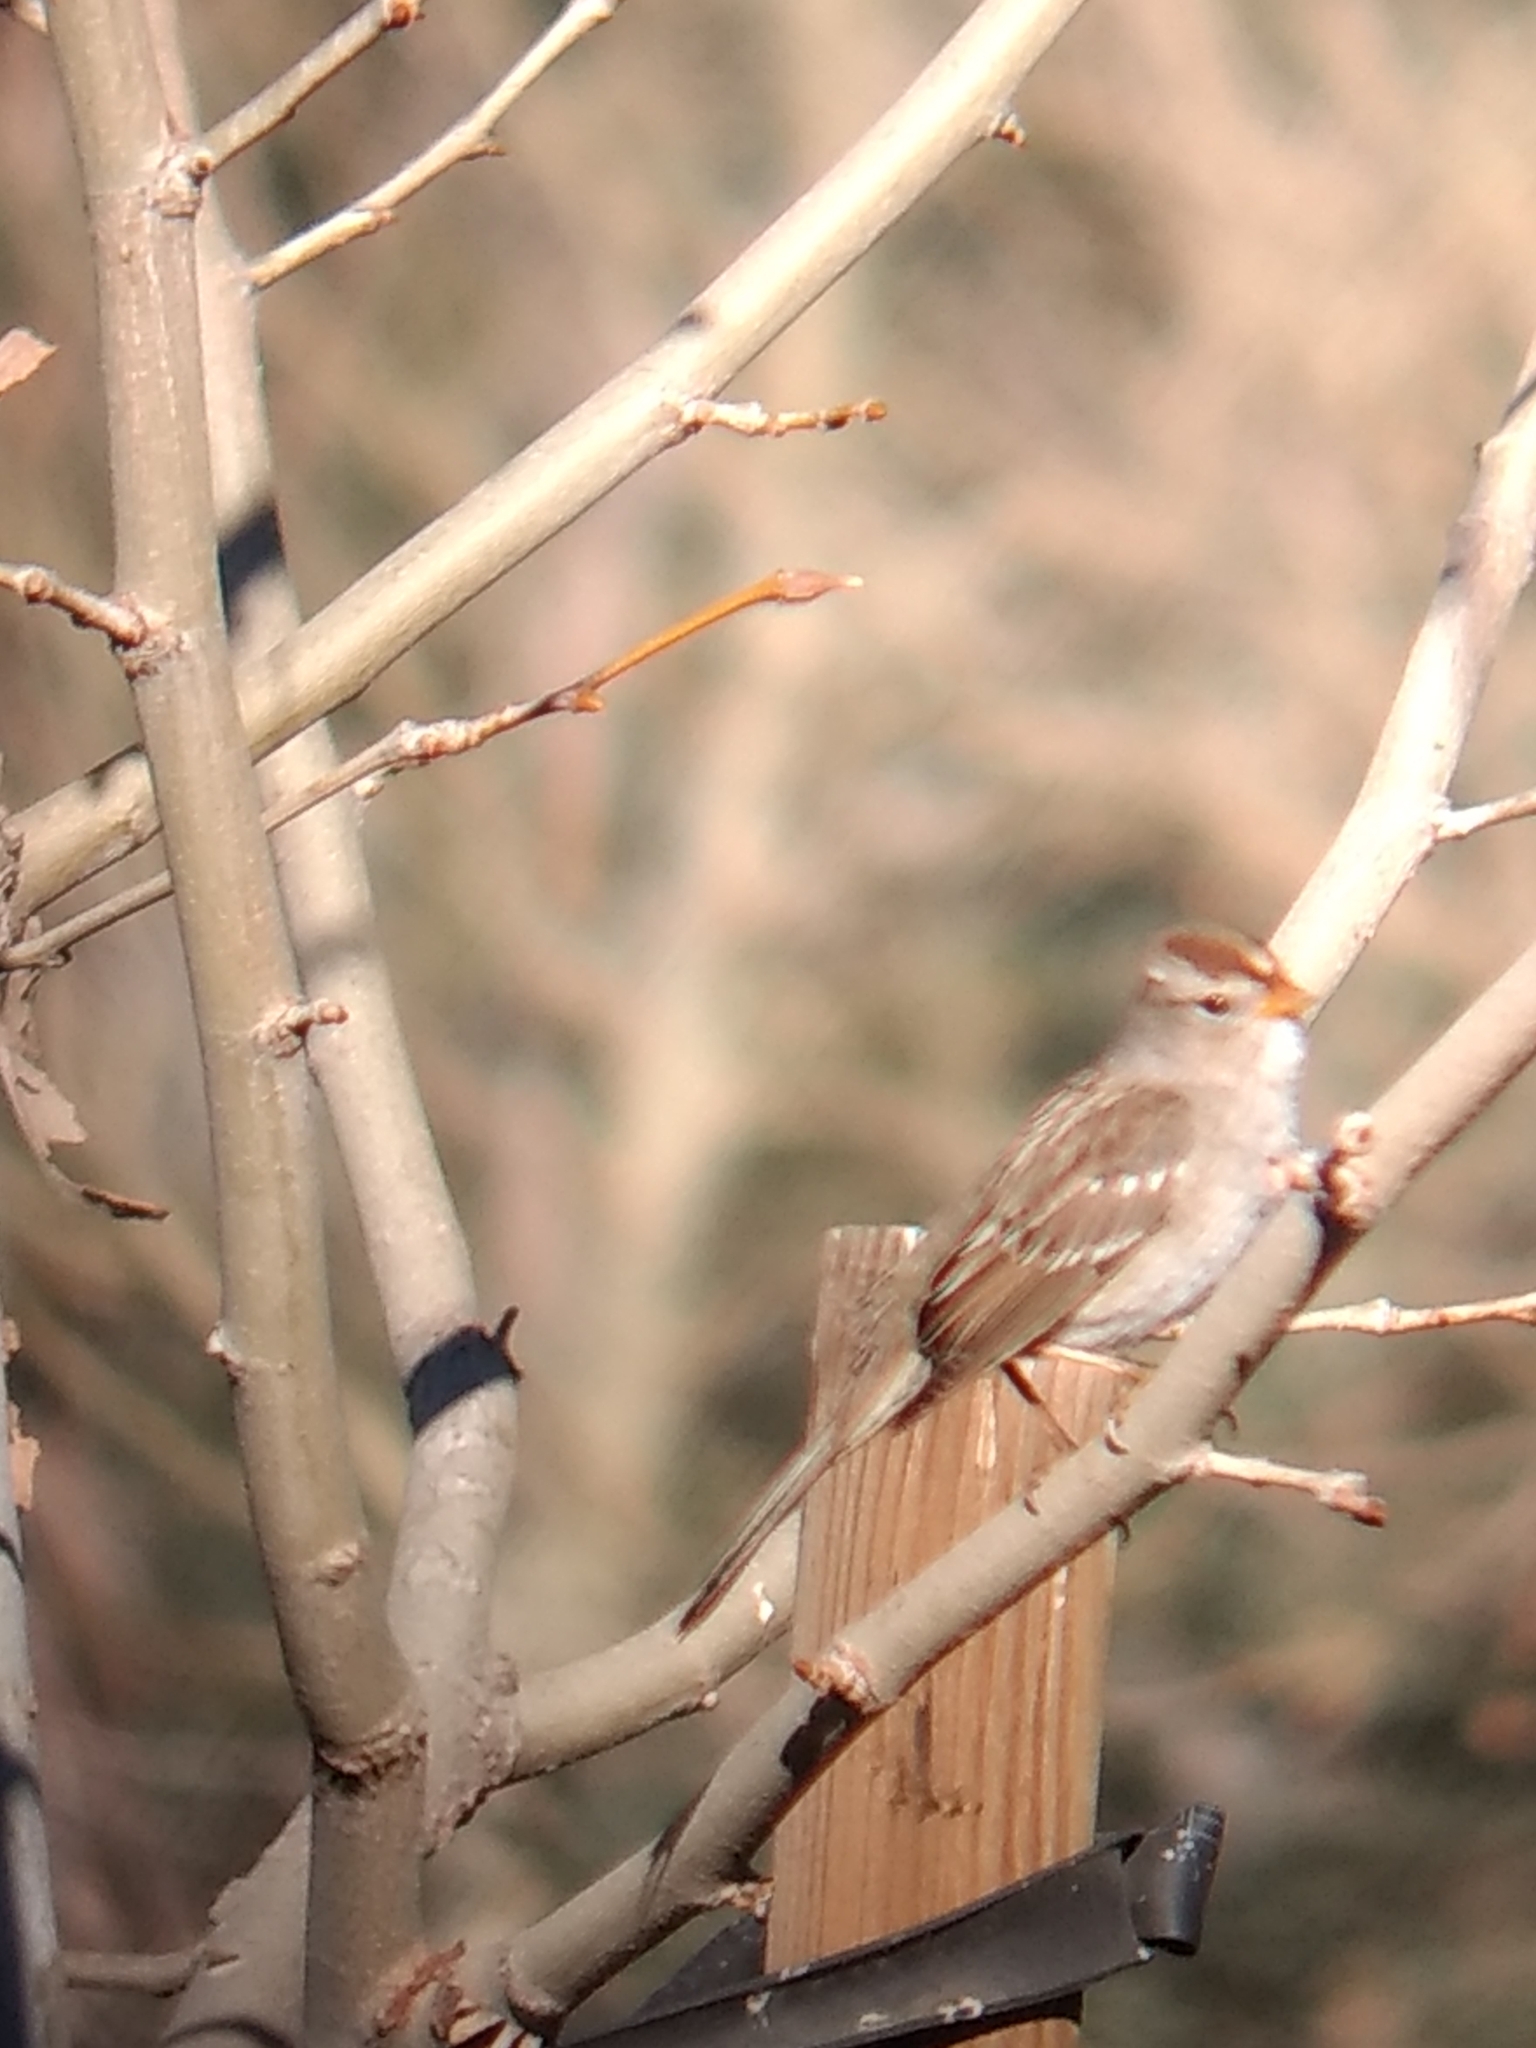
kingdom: Animalia
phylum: Chordata
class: Aves
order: Passeriformes
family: Passerellidae
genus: Zonotrichia
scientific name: Zonotrichia leucophrys
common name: White-crowned sparrow
